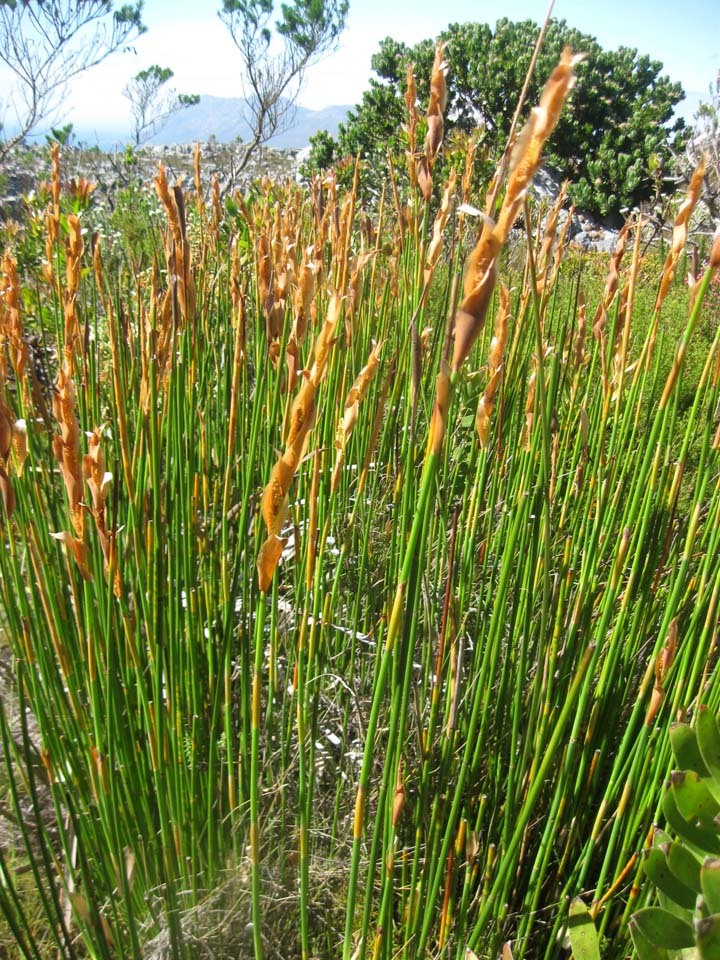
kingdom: Plantae
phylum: Tracheophyta
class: Liliopsida
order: Poales
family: Restionaceae
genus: Elegia
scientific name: Elegia racemosa
